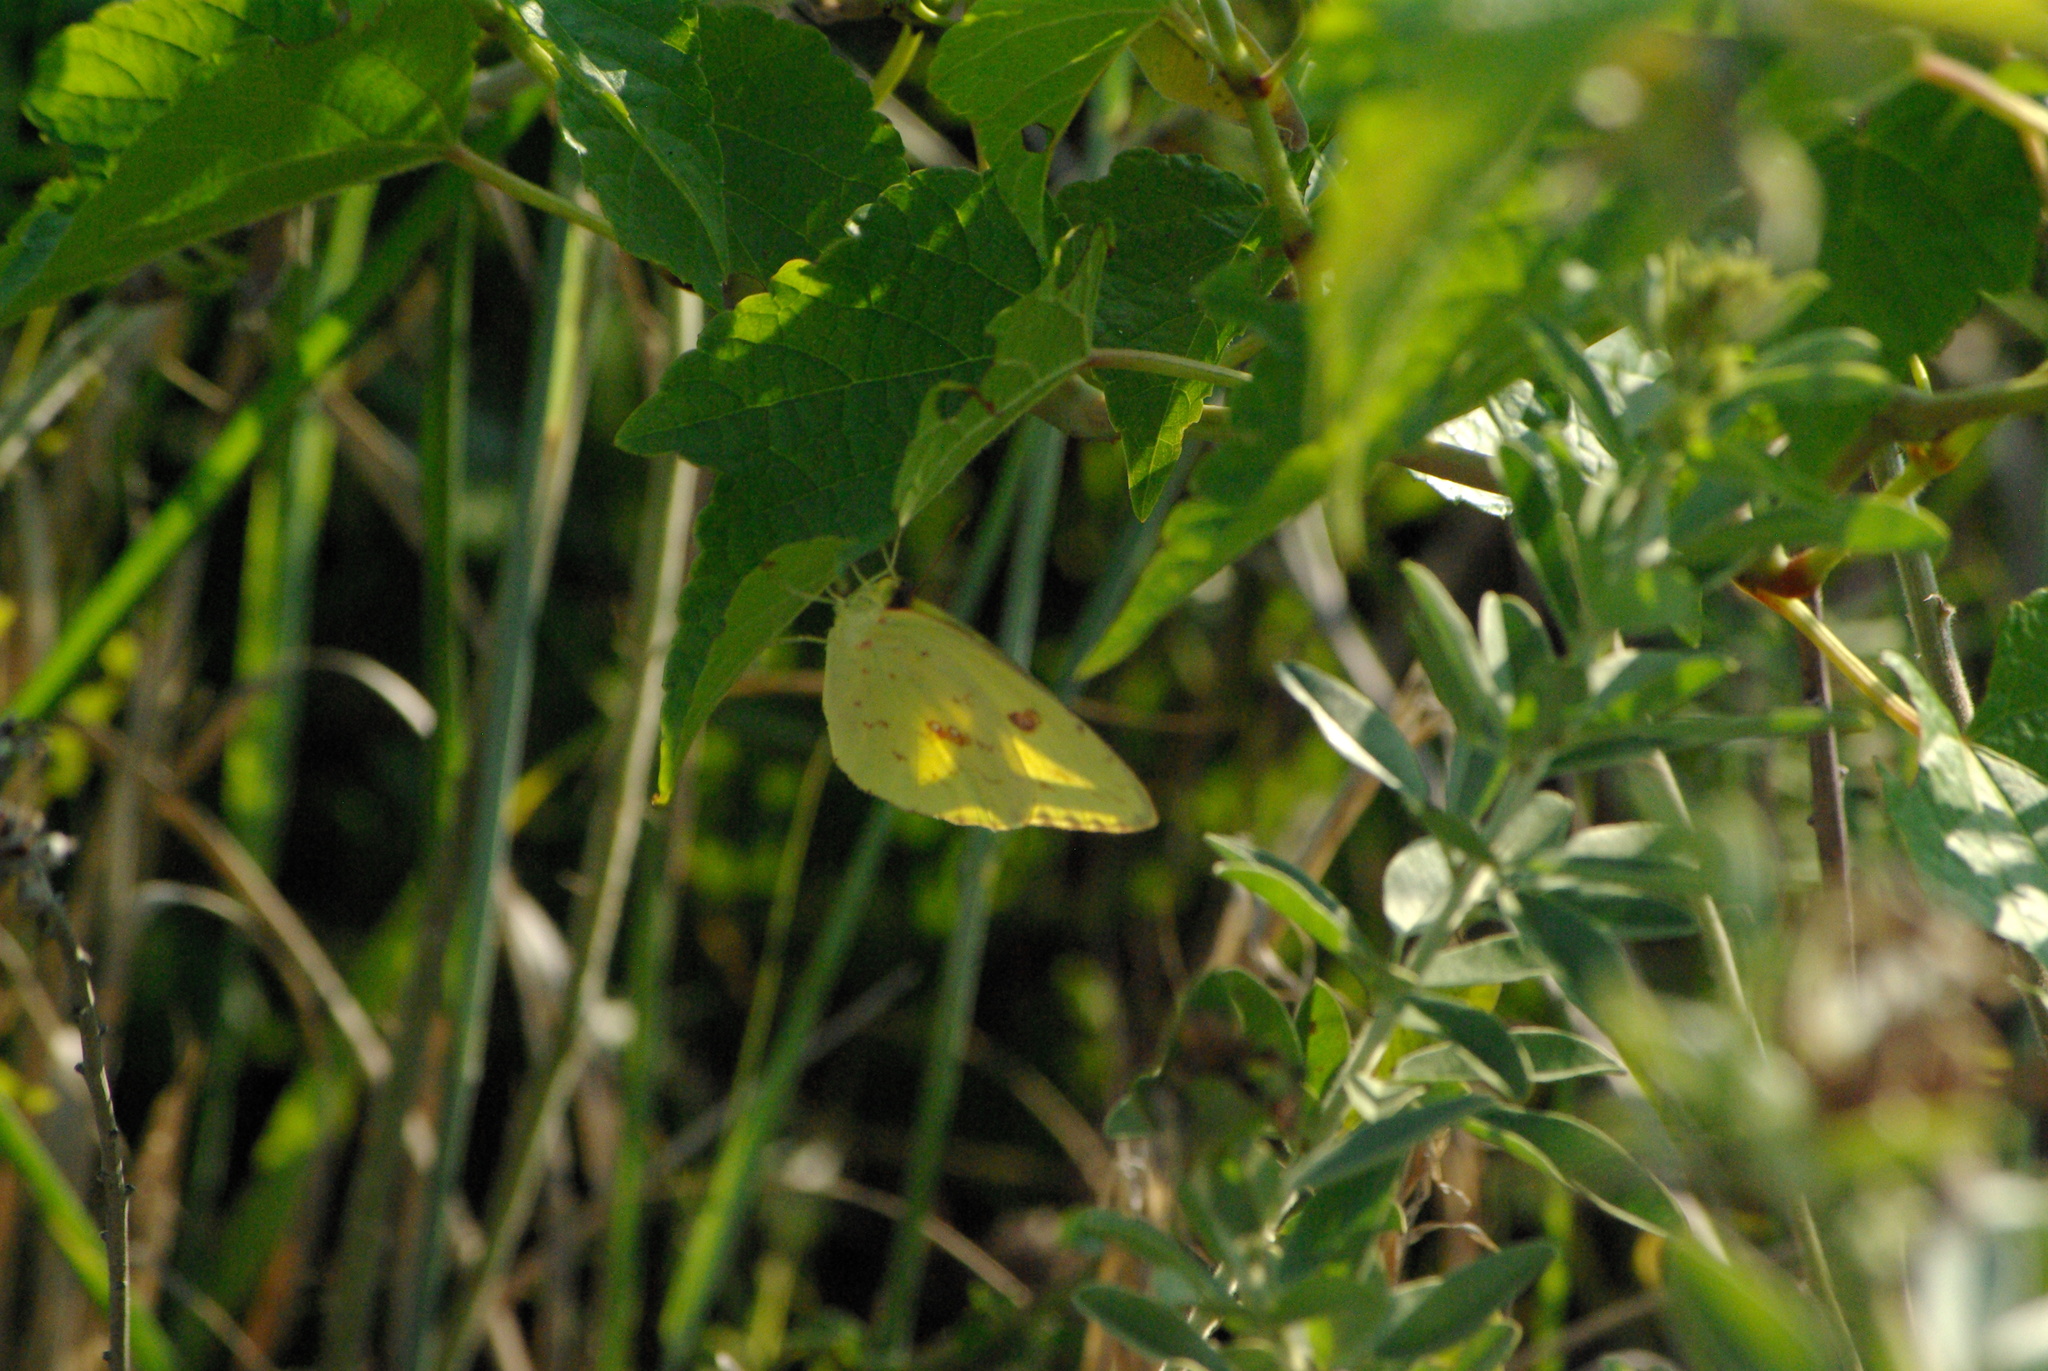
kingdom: Animalia
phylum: Arthropoda
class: Insecta
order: Lepidoptera
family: Pieridae
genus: Phoebis
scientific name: Phoebis sennae
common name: Cloudless sulphur
